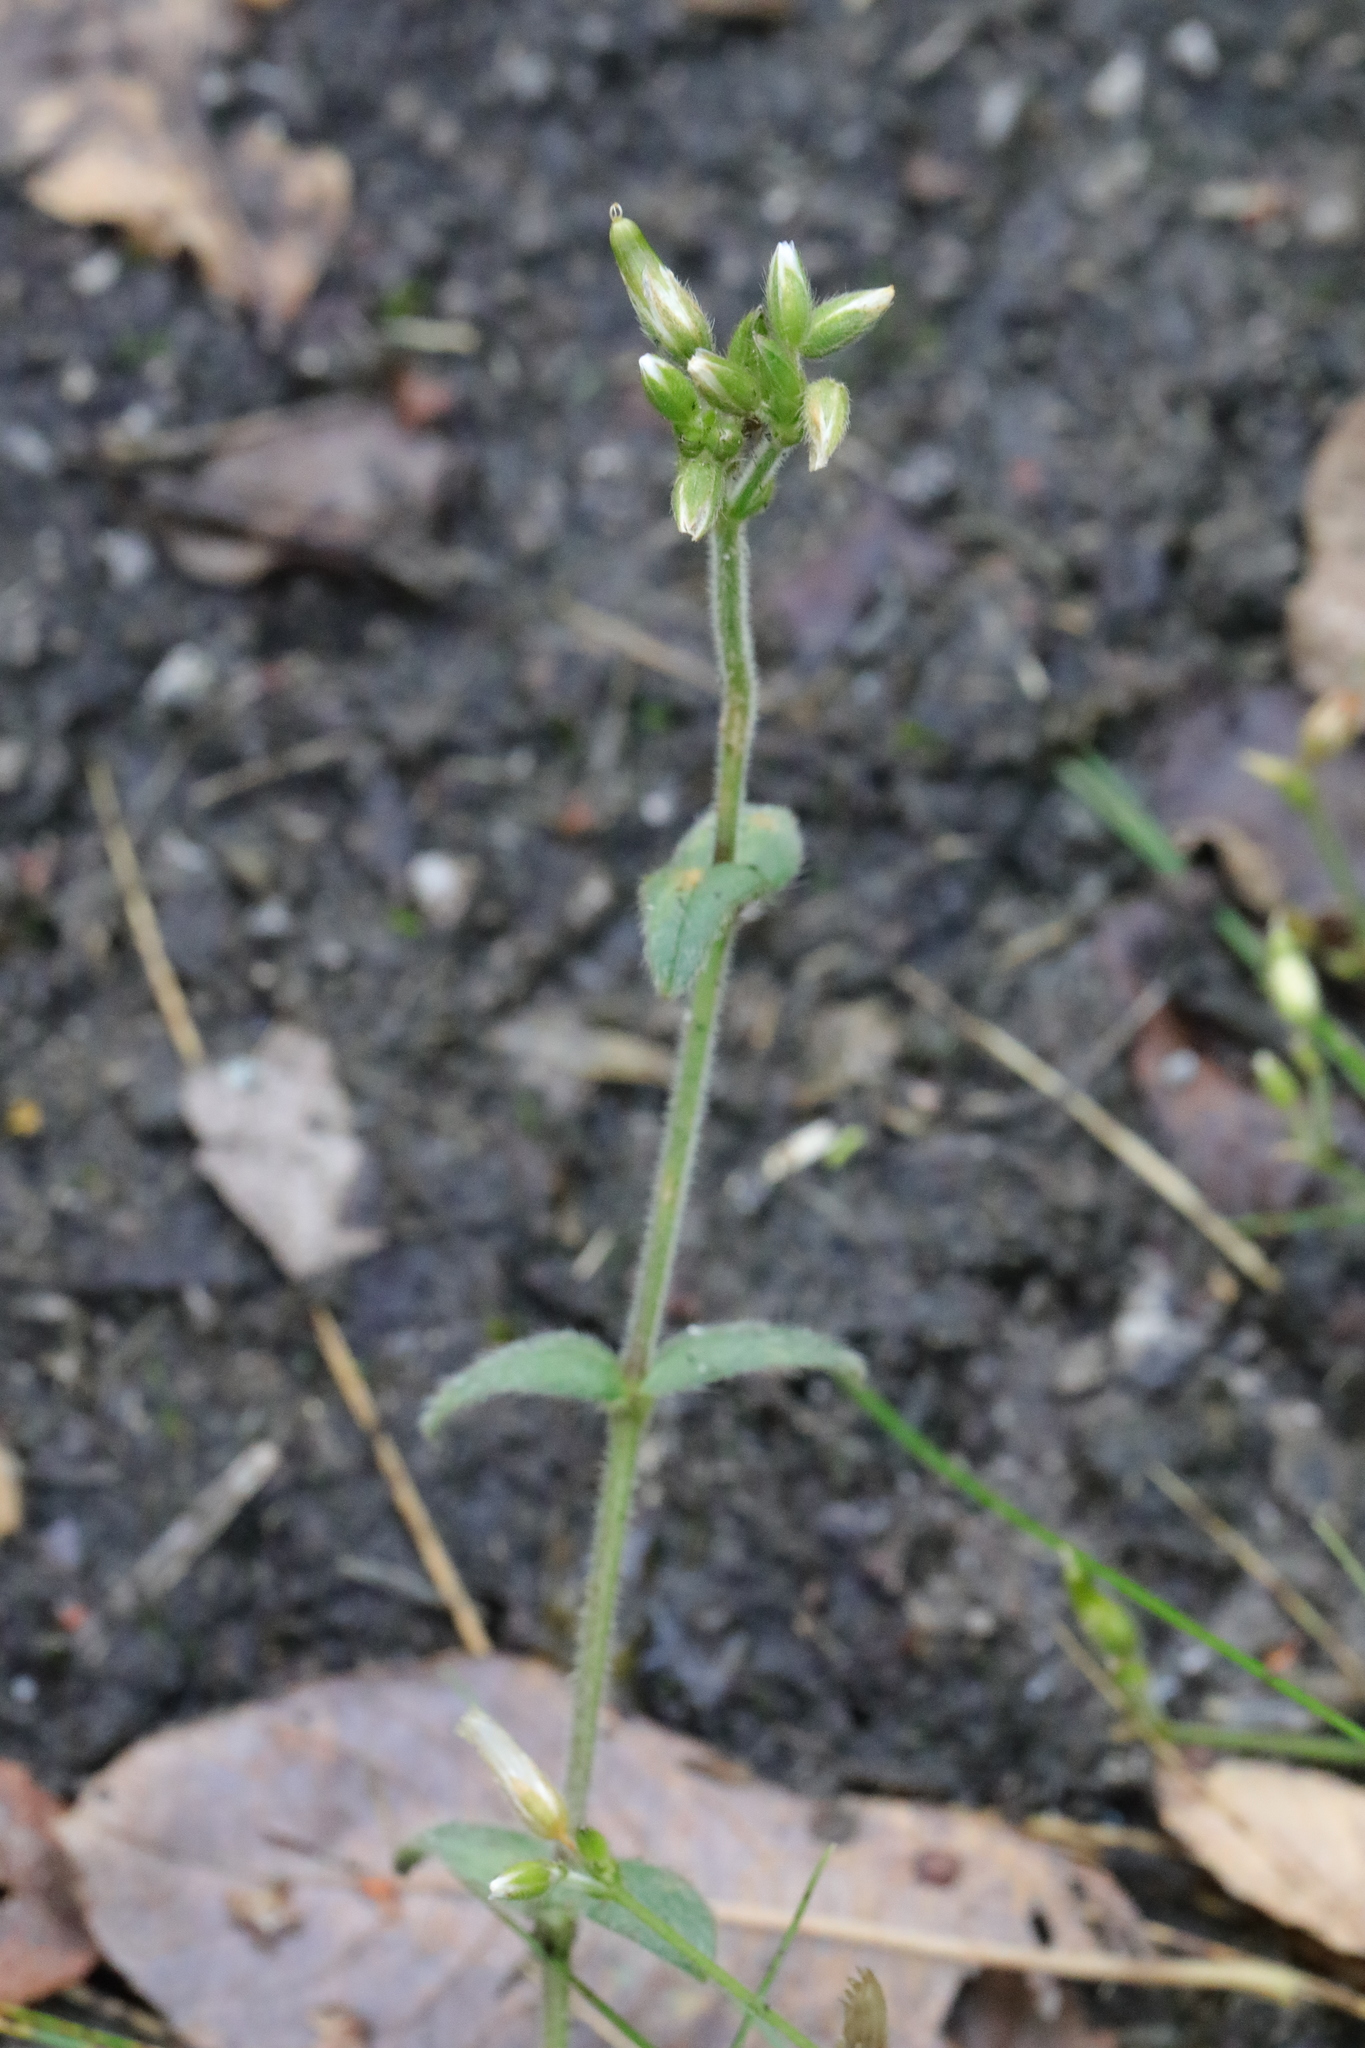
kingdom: Plantae
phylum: Tracheophyta
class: Magnoliopsida
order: Caryophyllales
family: Caryophyllaceae
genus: Cerastium
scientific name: Cerastium glomeratum
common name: Sticky chickweed
